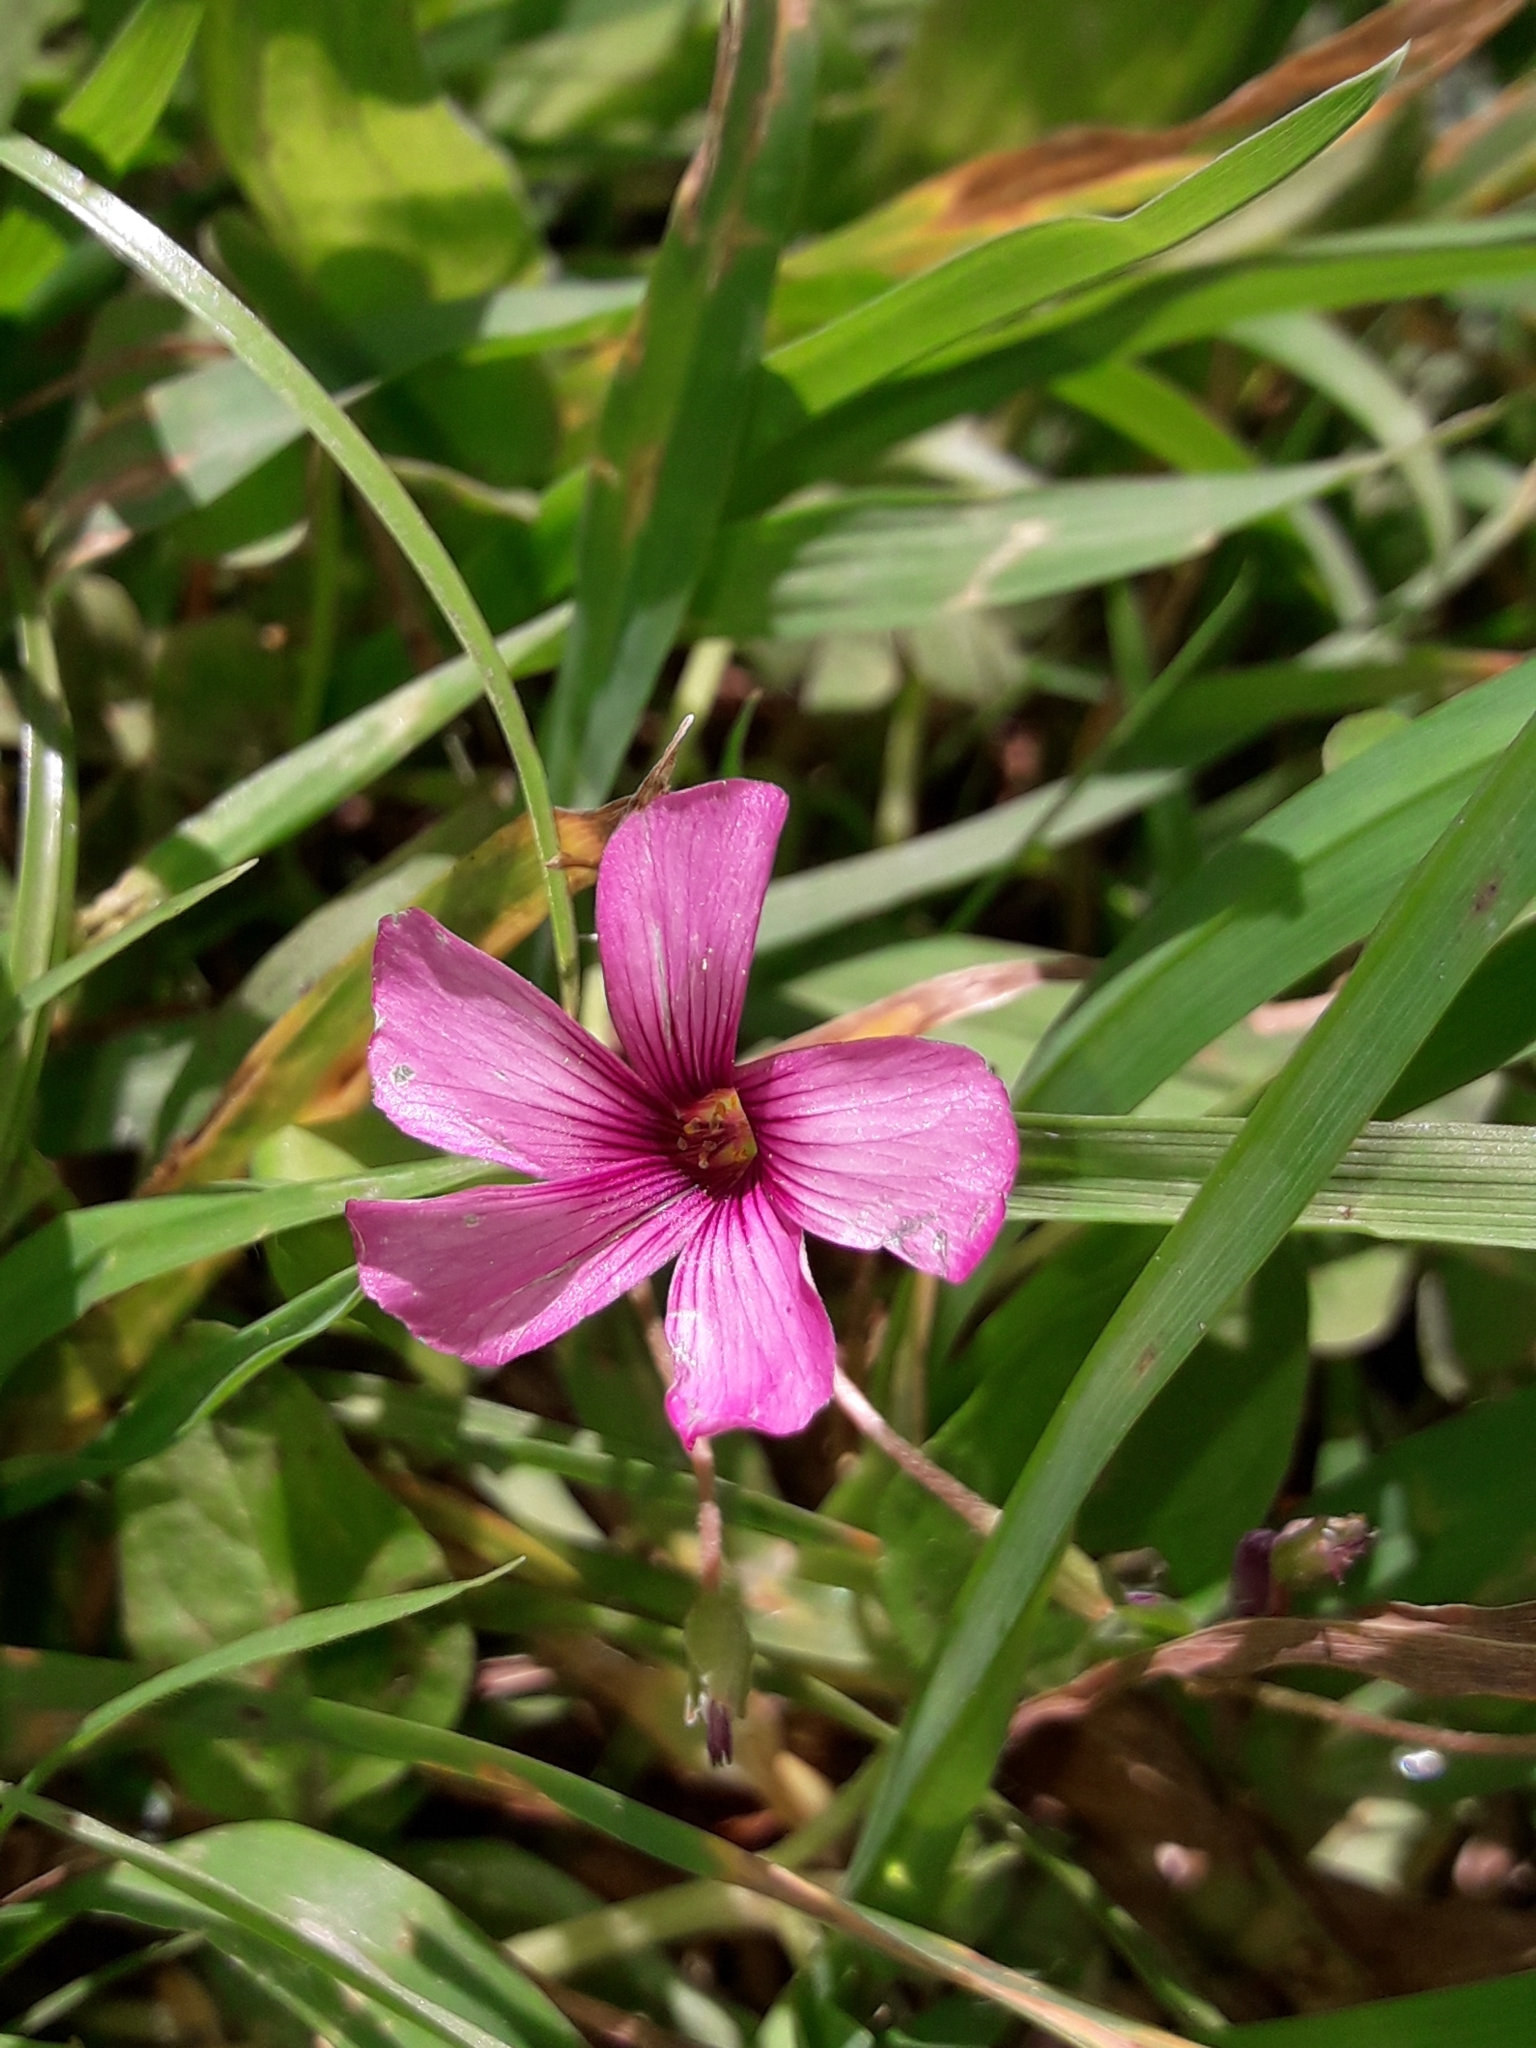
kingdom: Plantae
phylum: Tracheophyta
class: Magnoliopsida
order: Oxalidales
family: Oxalidaceae
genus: Oxalis
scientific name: Oxalis articulata
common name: Pink-sorrel
